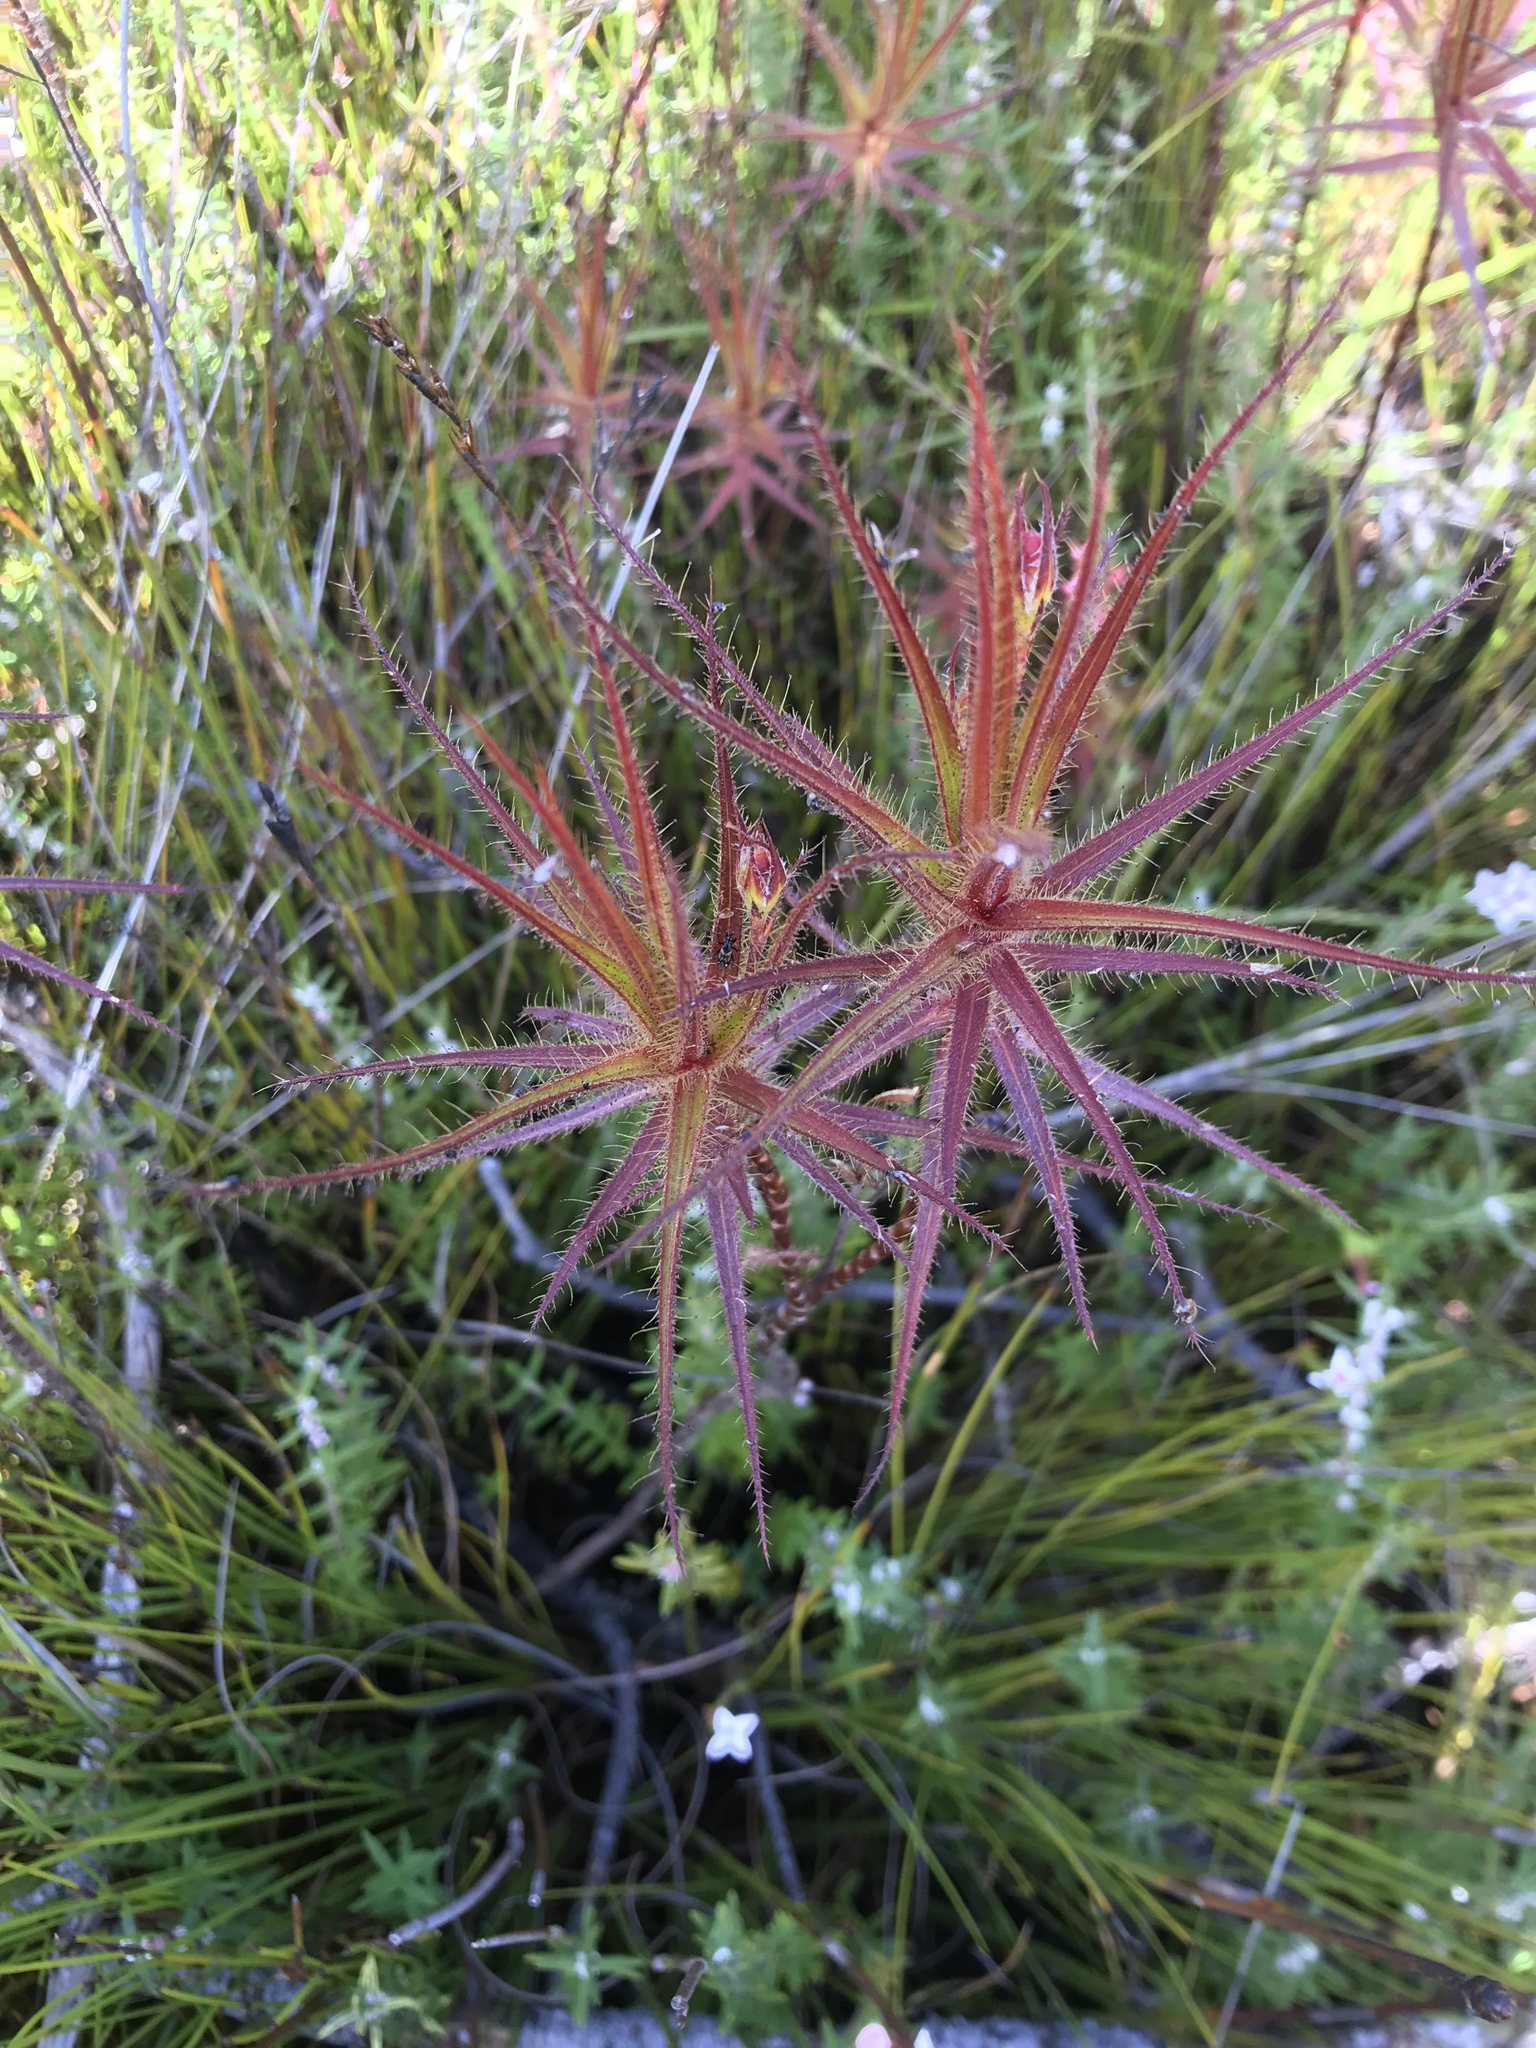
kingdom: Plantae
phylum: Tracheophyta
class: Magnoliopsida
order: Ericales
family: Roridulaceae
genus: Roridula
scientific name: Roridula gorgonias
